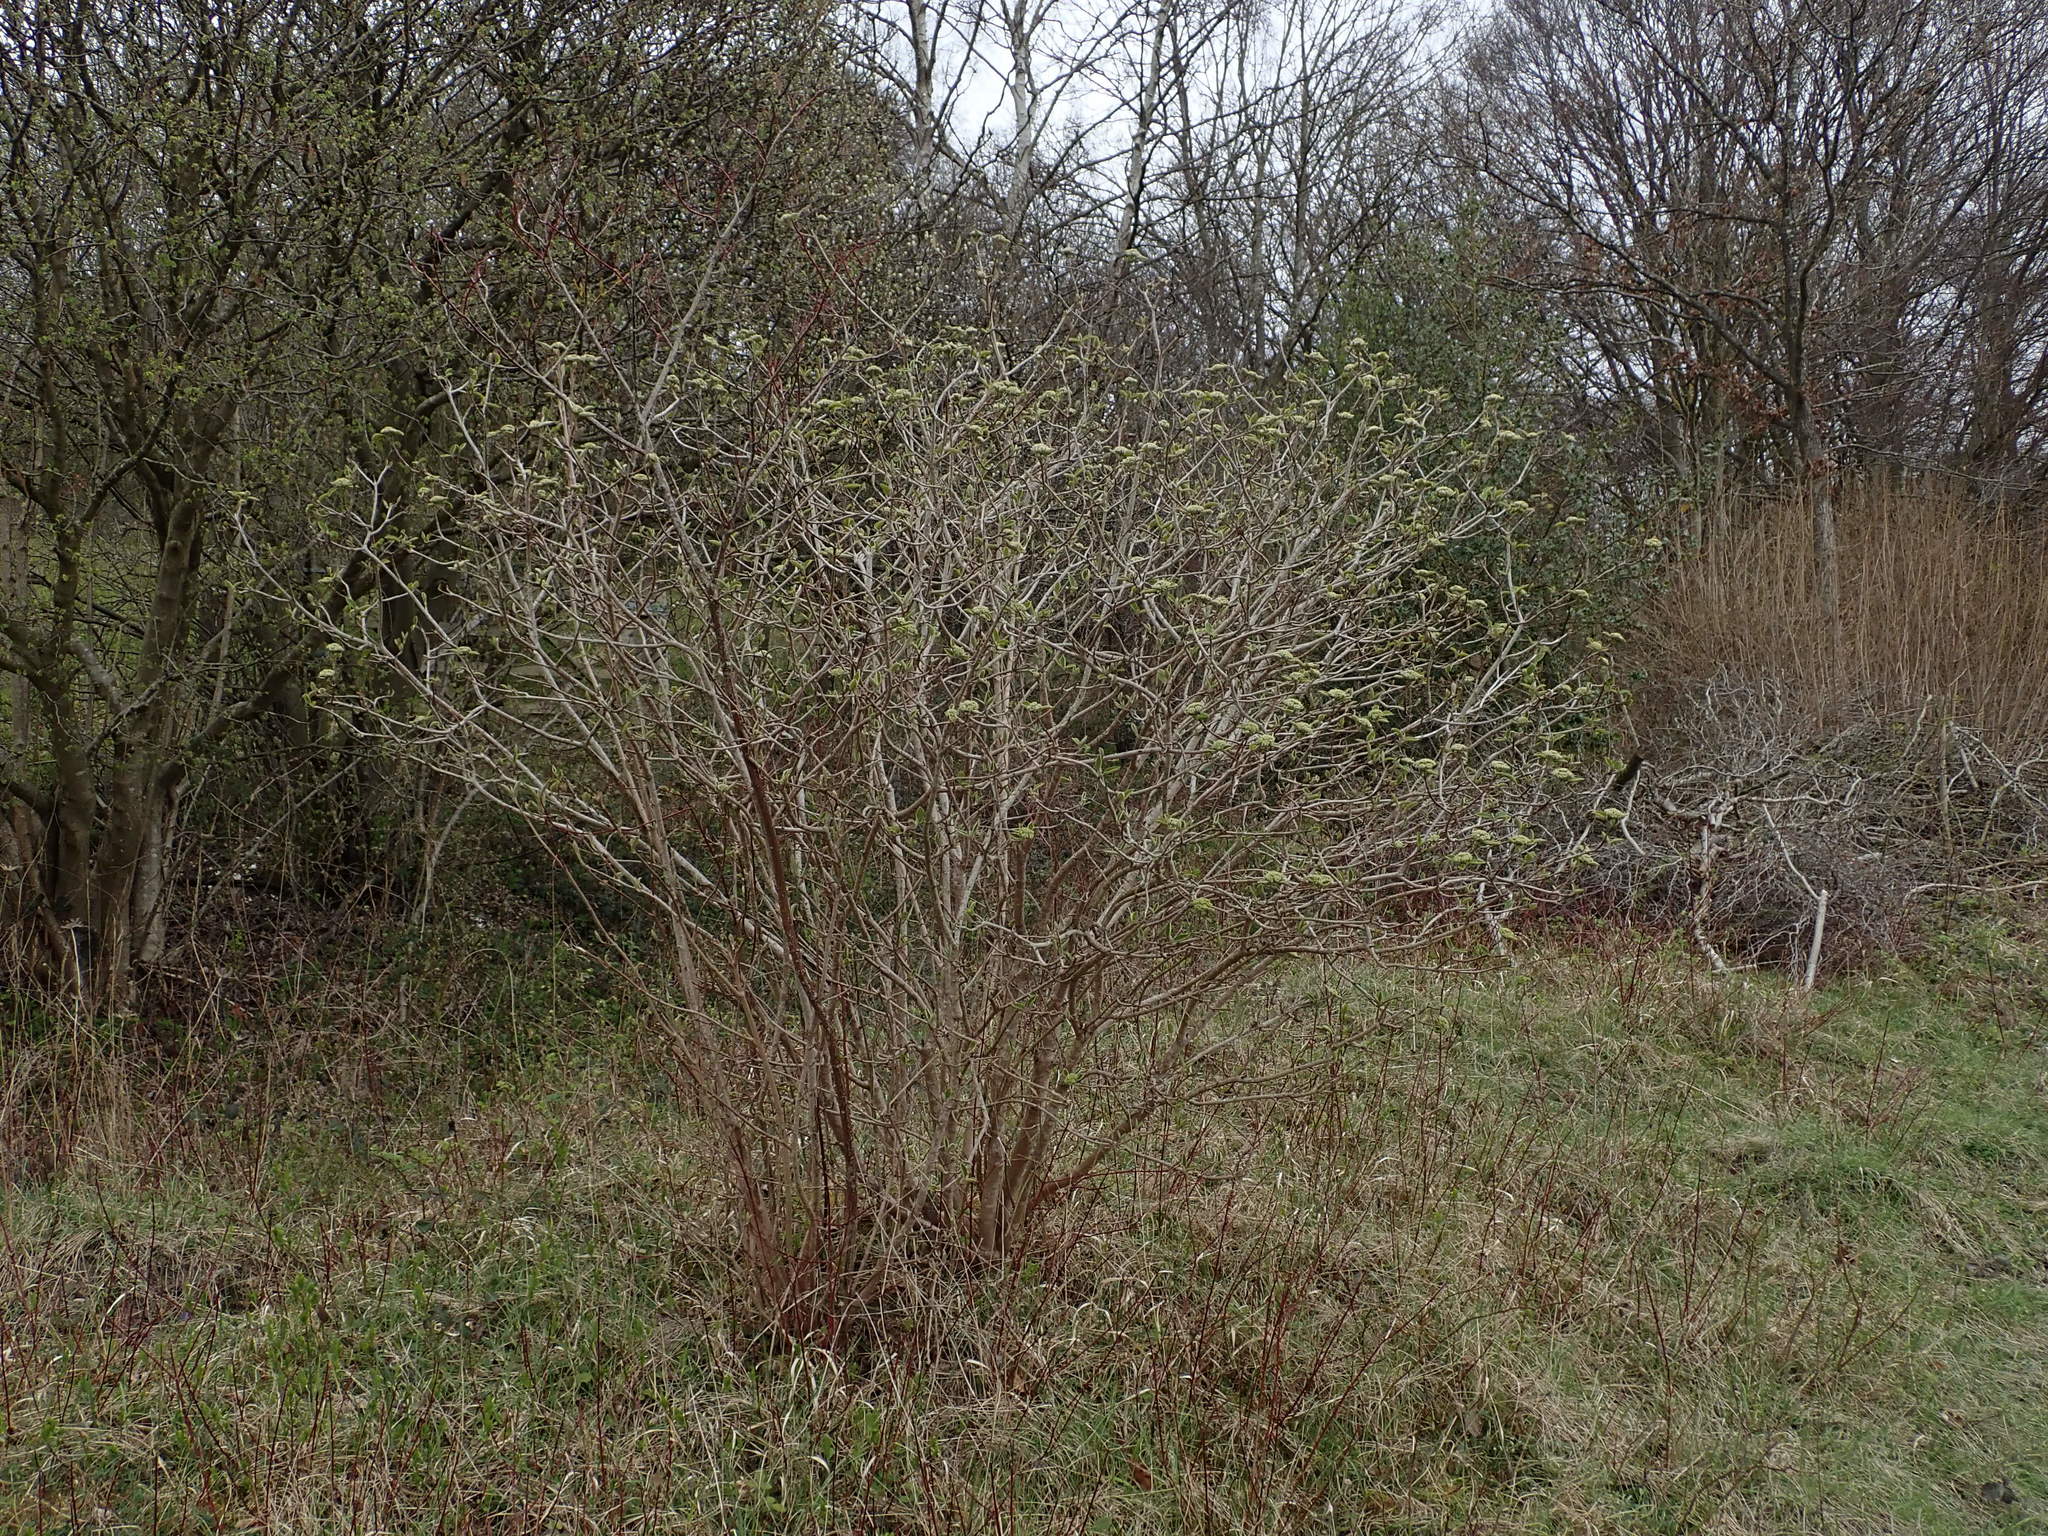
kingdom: Plantae
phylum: Tracheophyta
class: Magnoliopsida
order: Dipsacales
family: Viburnaceae
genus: Viburnum
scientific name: Viburnum lantana
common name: Wayfaring tree
